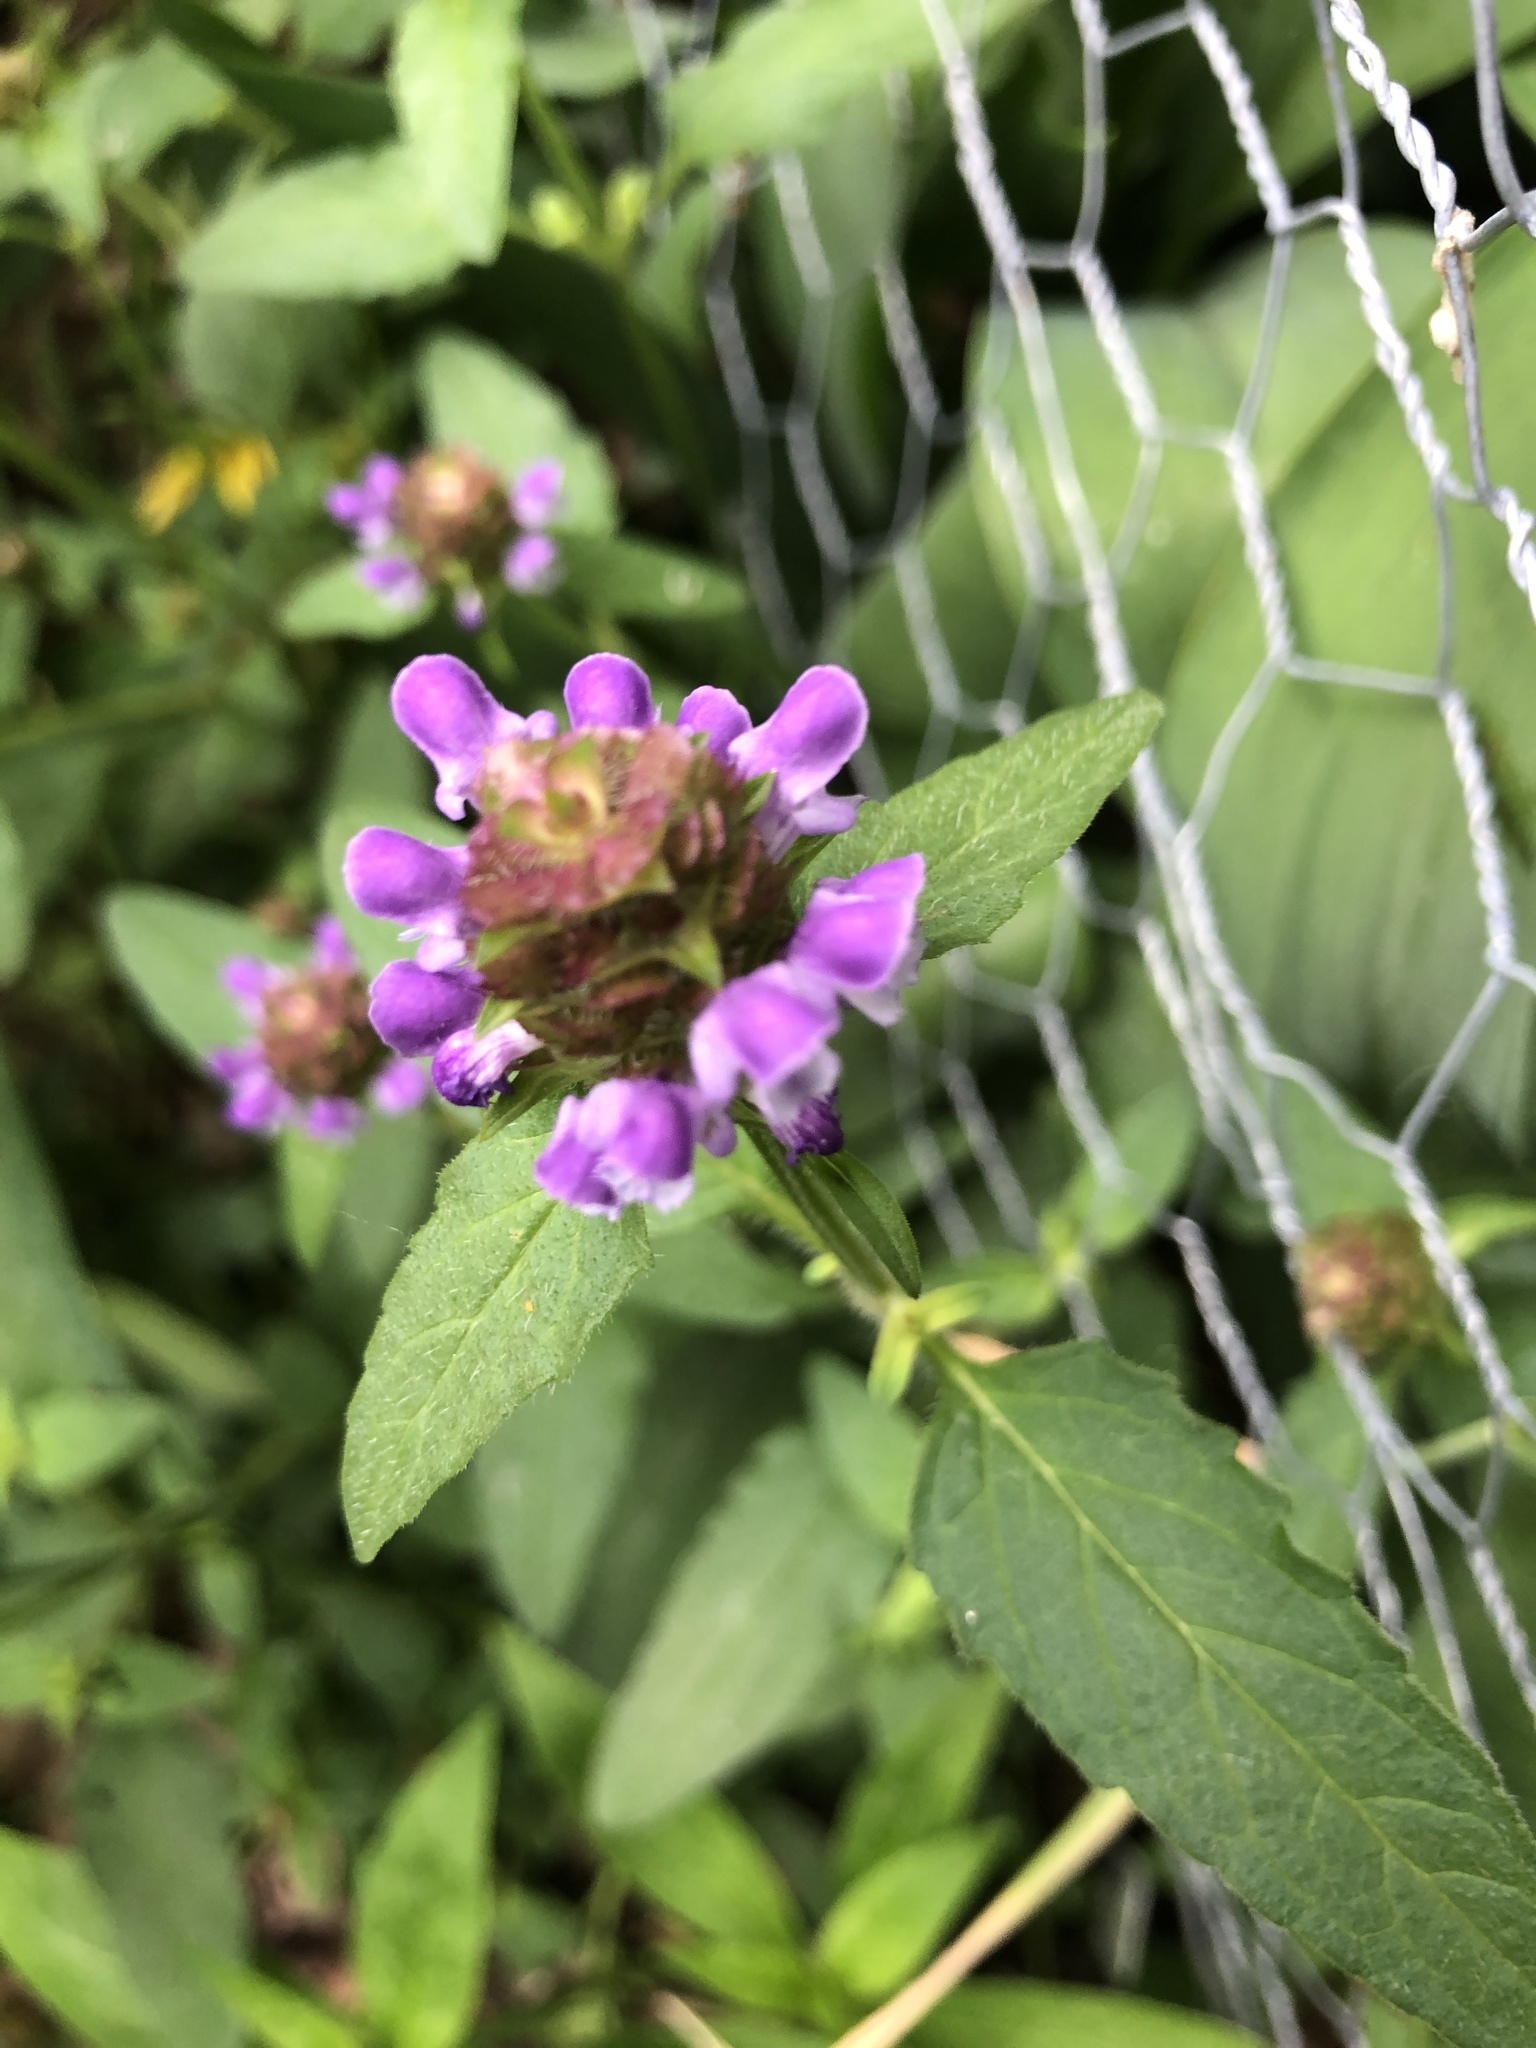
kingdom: Plantae
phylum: Tracheophyta
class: Magnoliopsida
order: Lamiales
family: Lamiaceae
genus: Prunella
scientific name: Prunella vulgaris
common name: Heal-all
